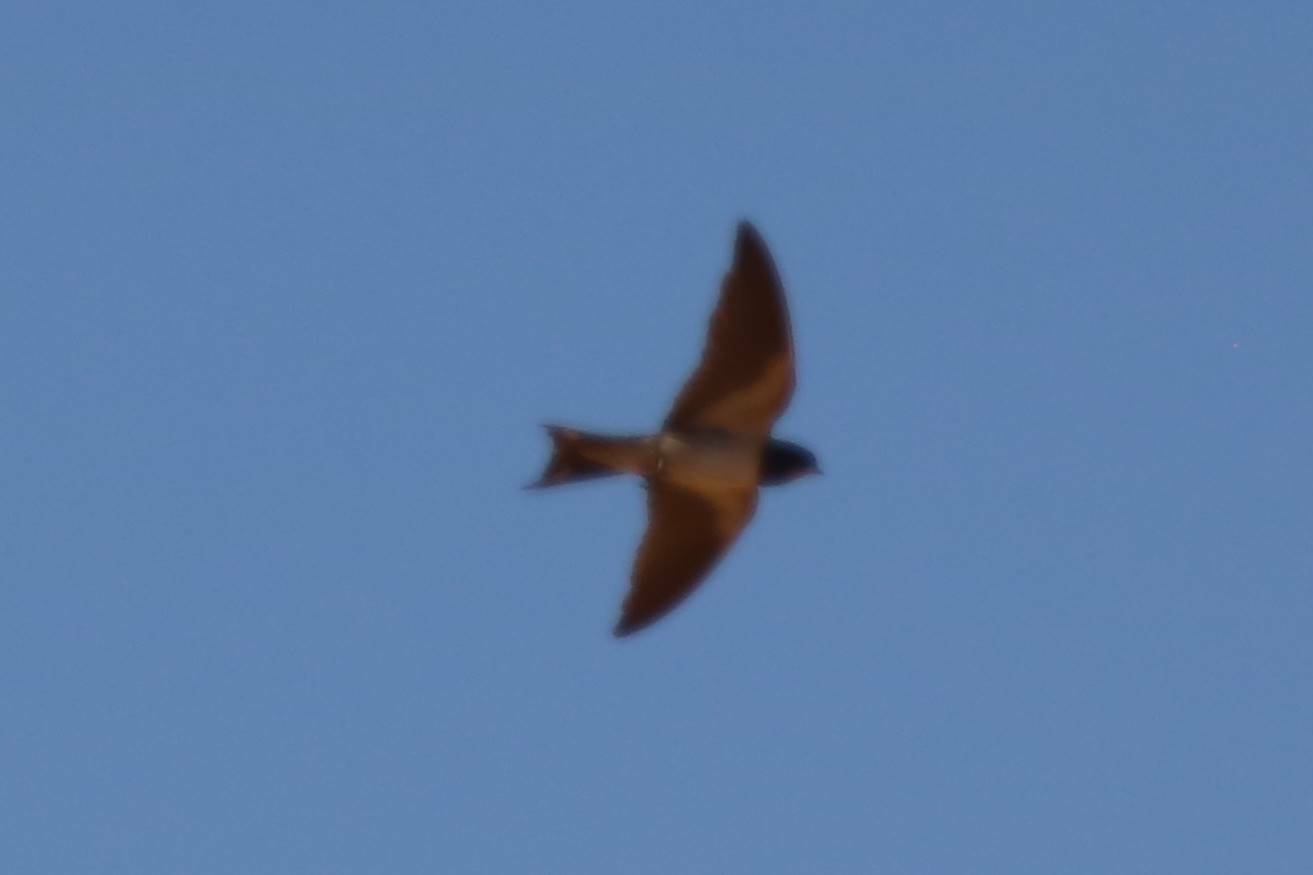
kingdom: Animalia
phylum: Chordata
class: Aves
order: Passeriformes
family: Hirundinidae
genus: Hirundo
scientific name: Hirundo rustica
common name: Barn swallow
